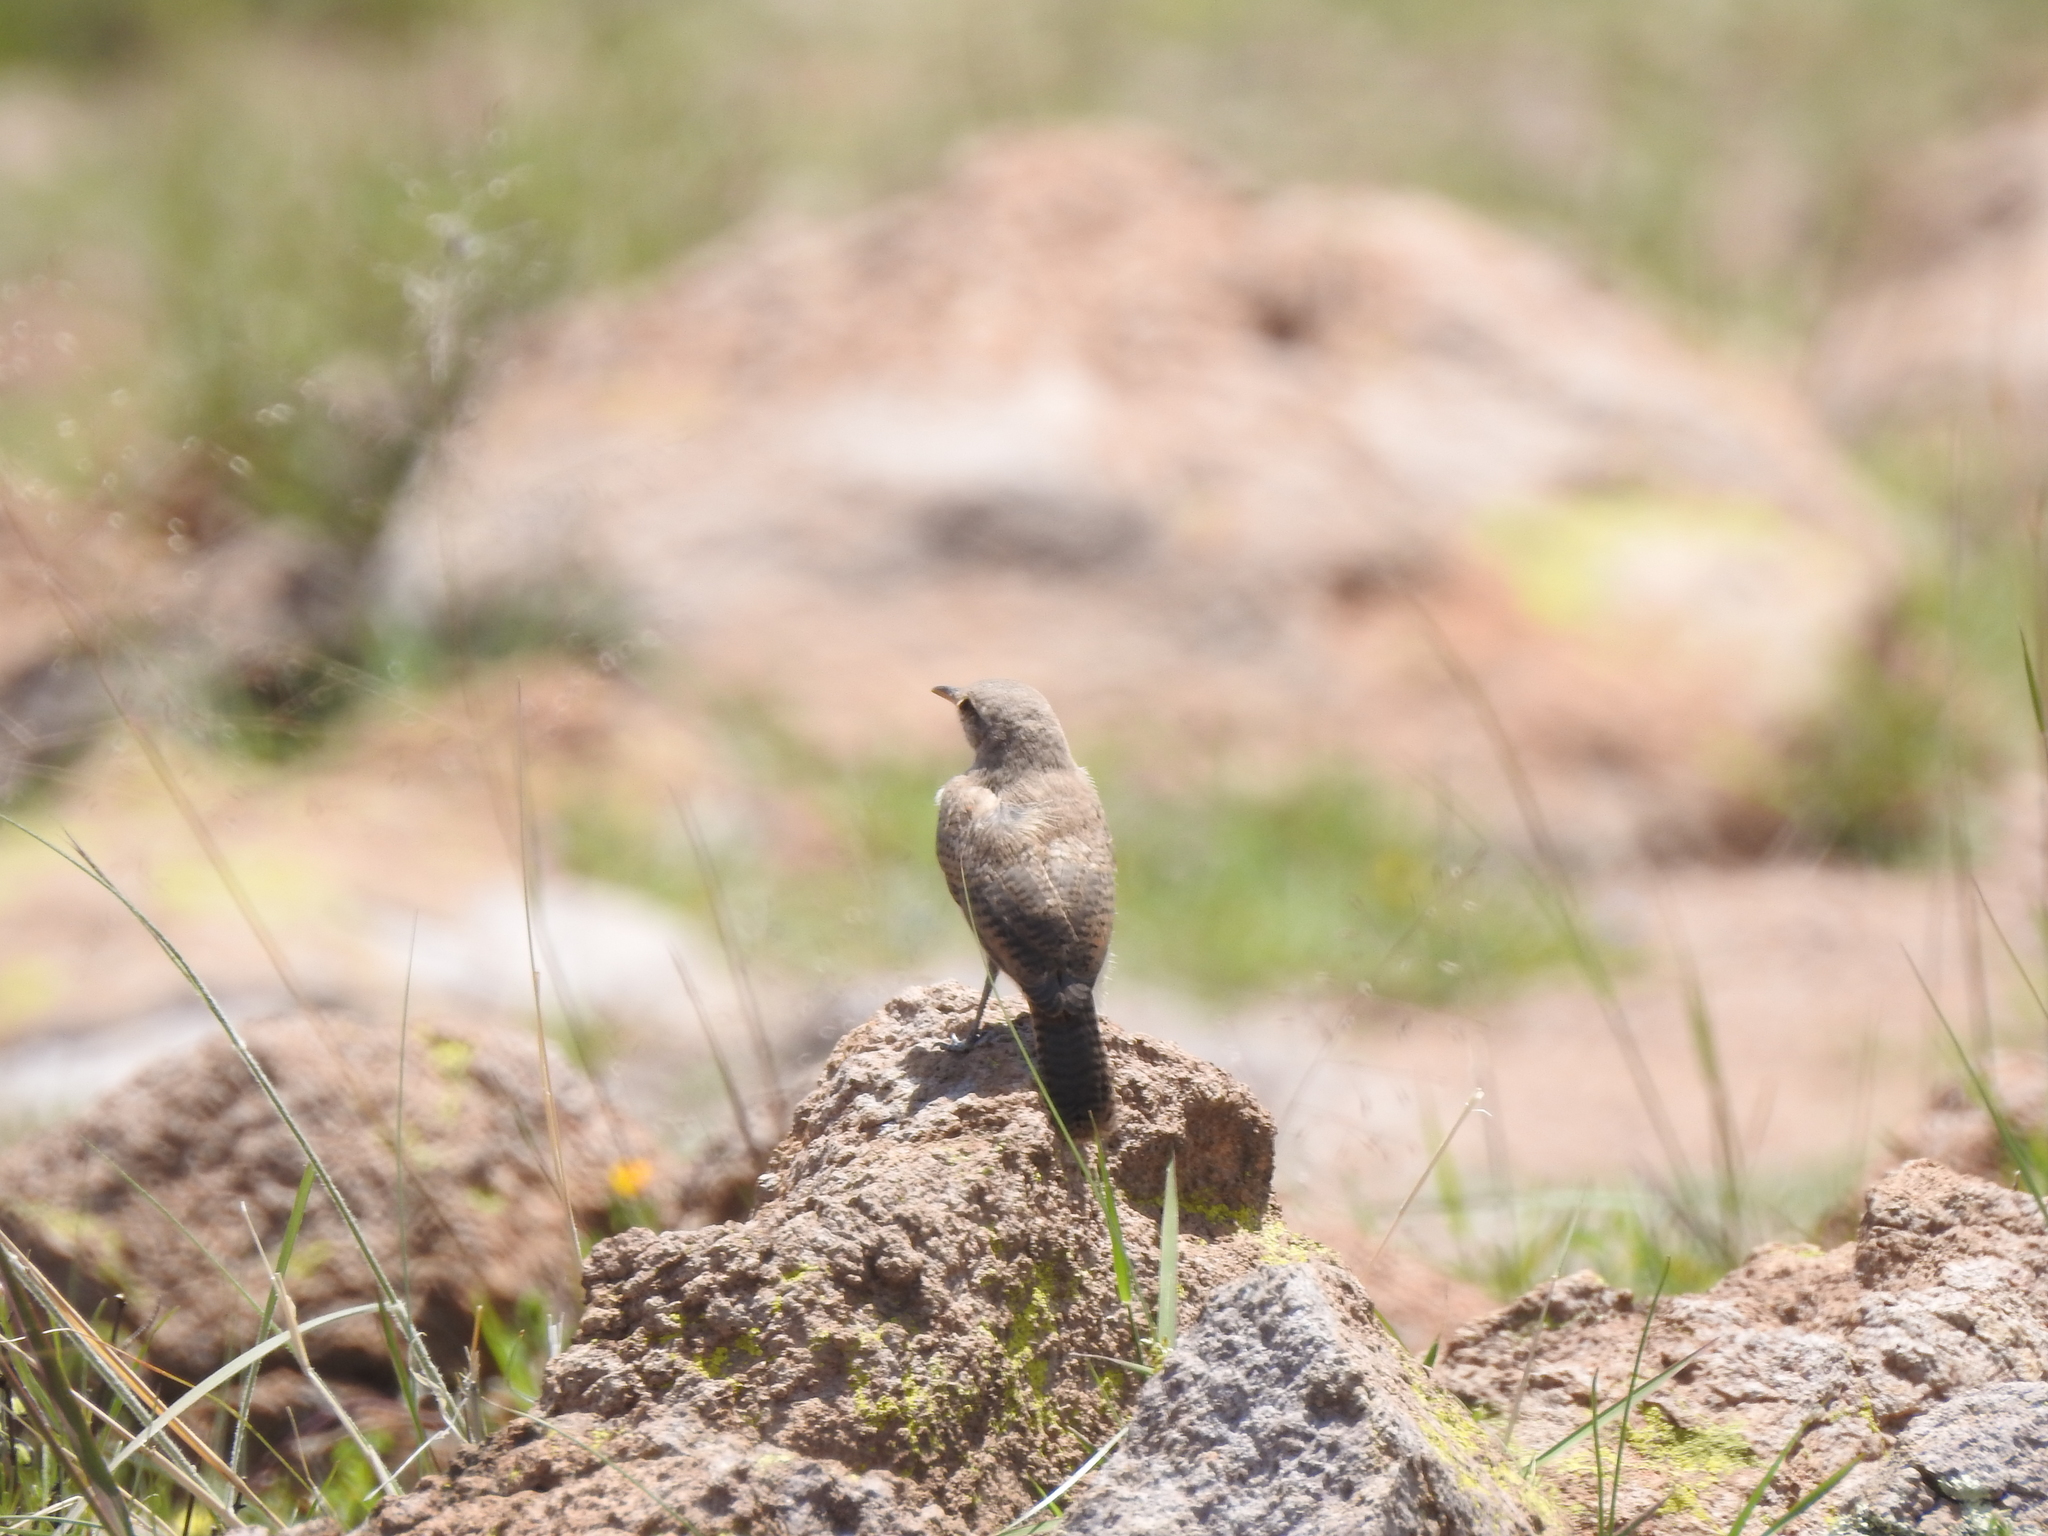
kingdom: Animalia
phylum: Chordata
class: Aves
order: Passeriformes
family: Troglodytidae
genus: Salpinctes
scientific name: Salpinctes obsoletus
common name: Rock wren
